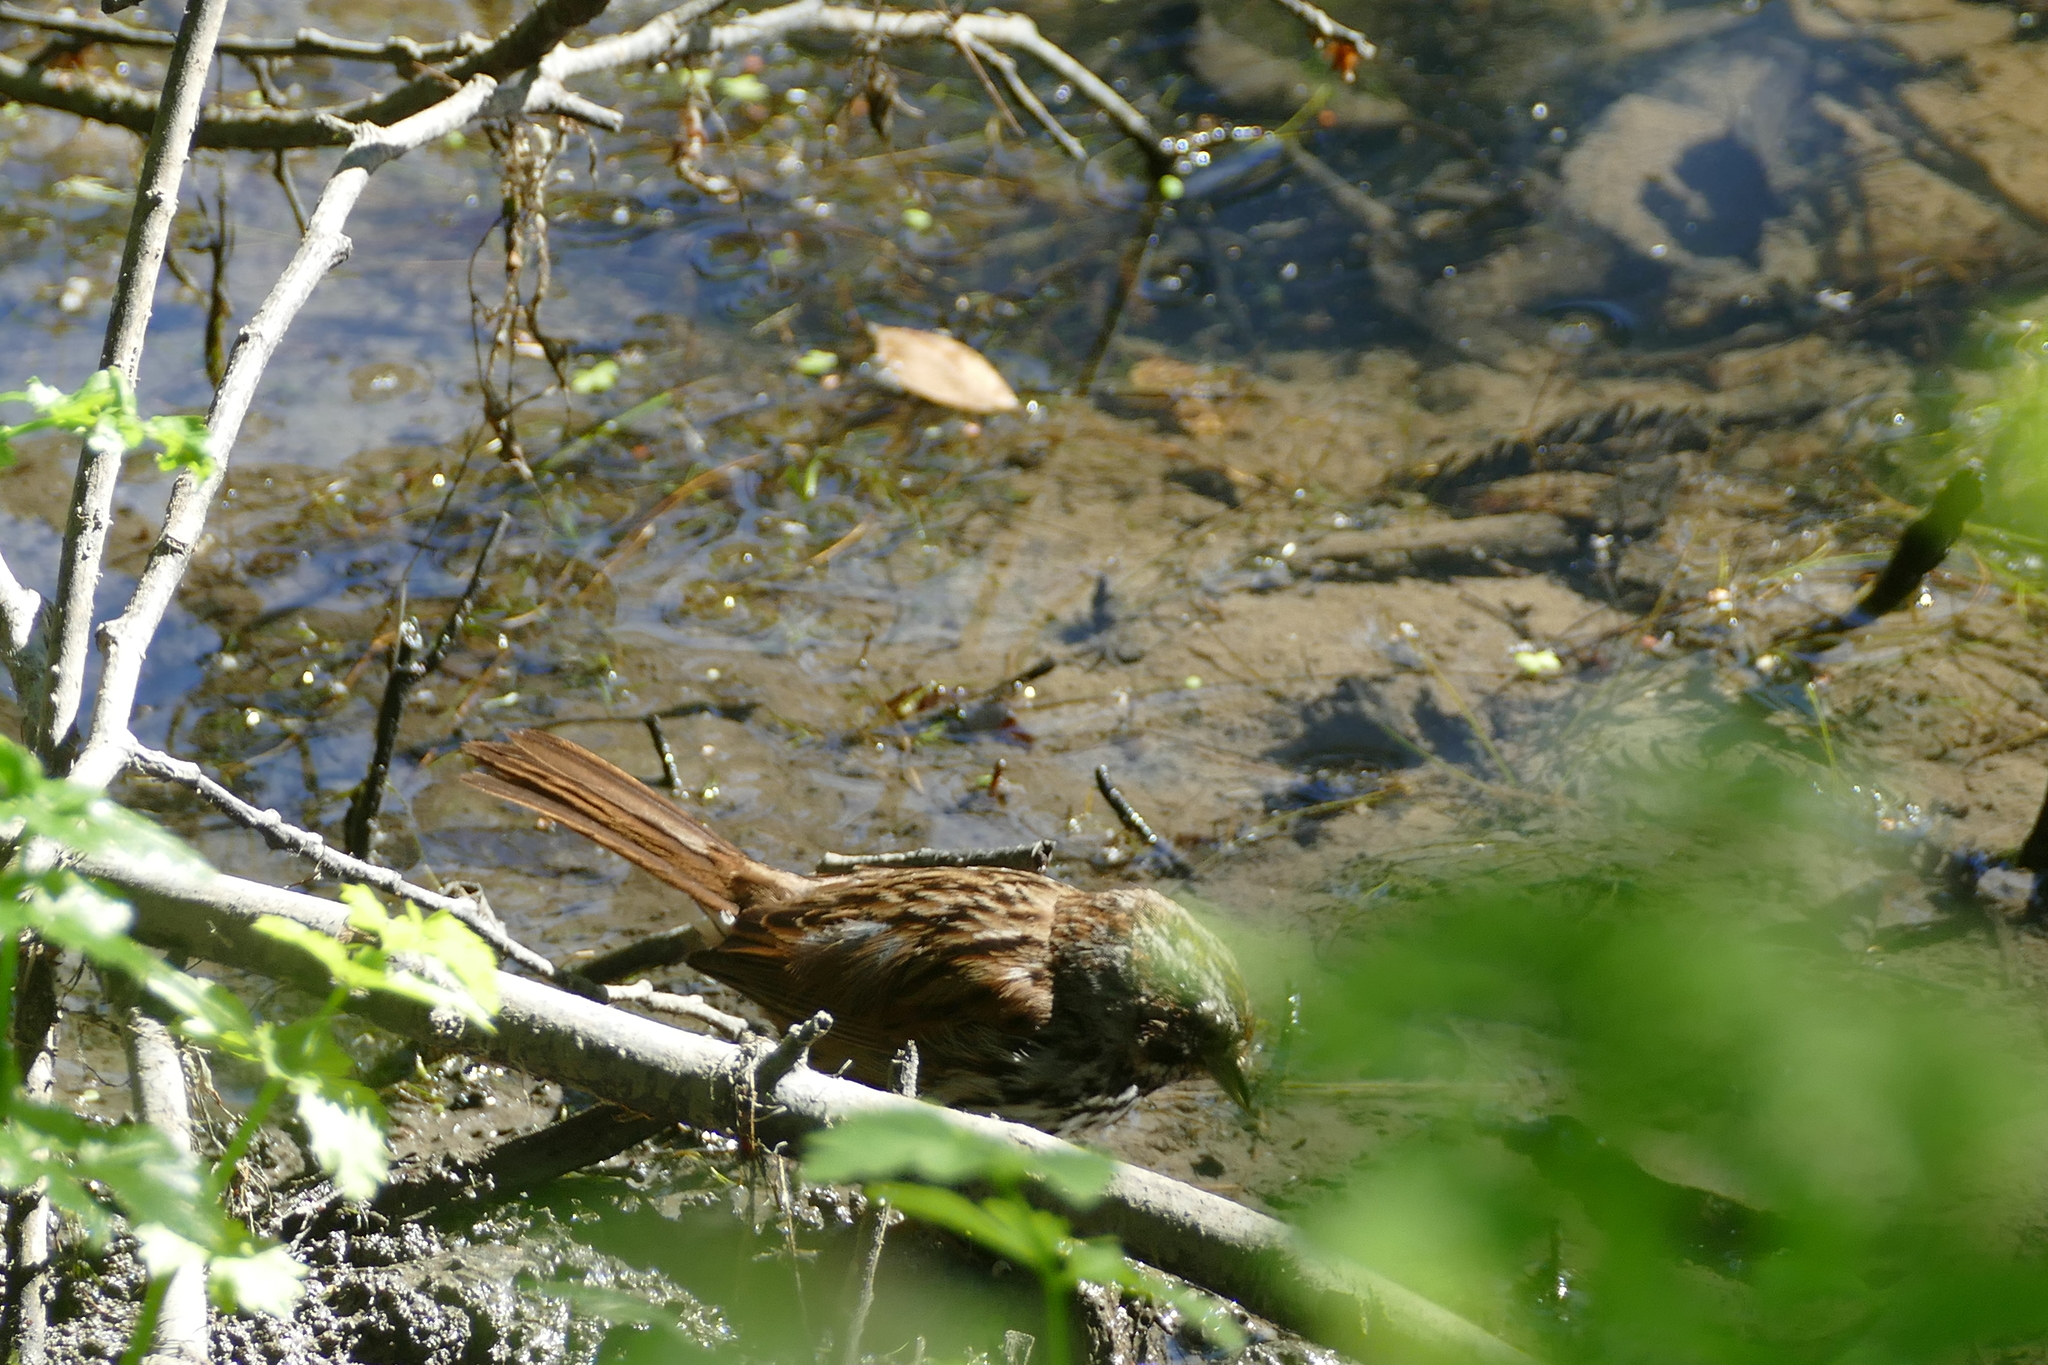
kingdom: Animalia
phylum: Chordata
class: Aves
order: Passeriformes
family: Passerellidae
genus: Melospiza
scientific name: Melospiza melodia
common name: Song sparrow
